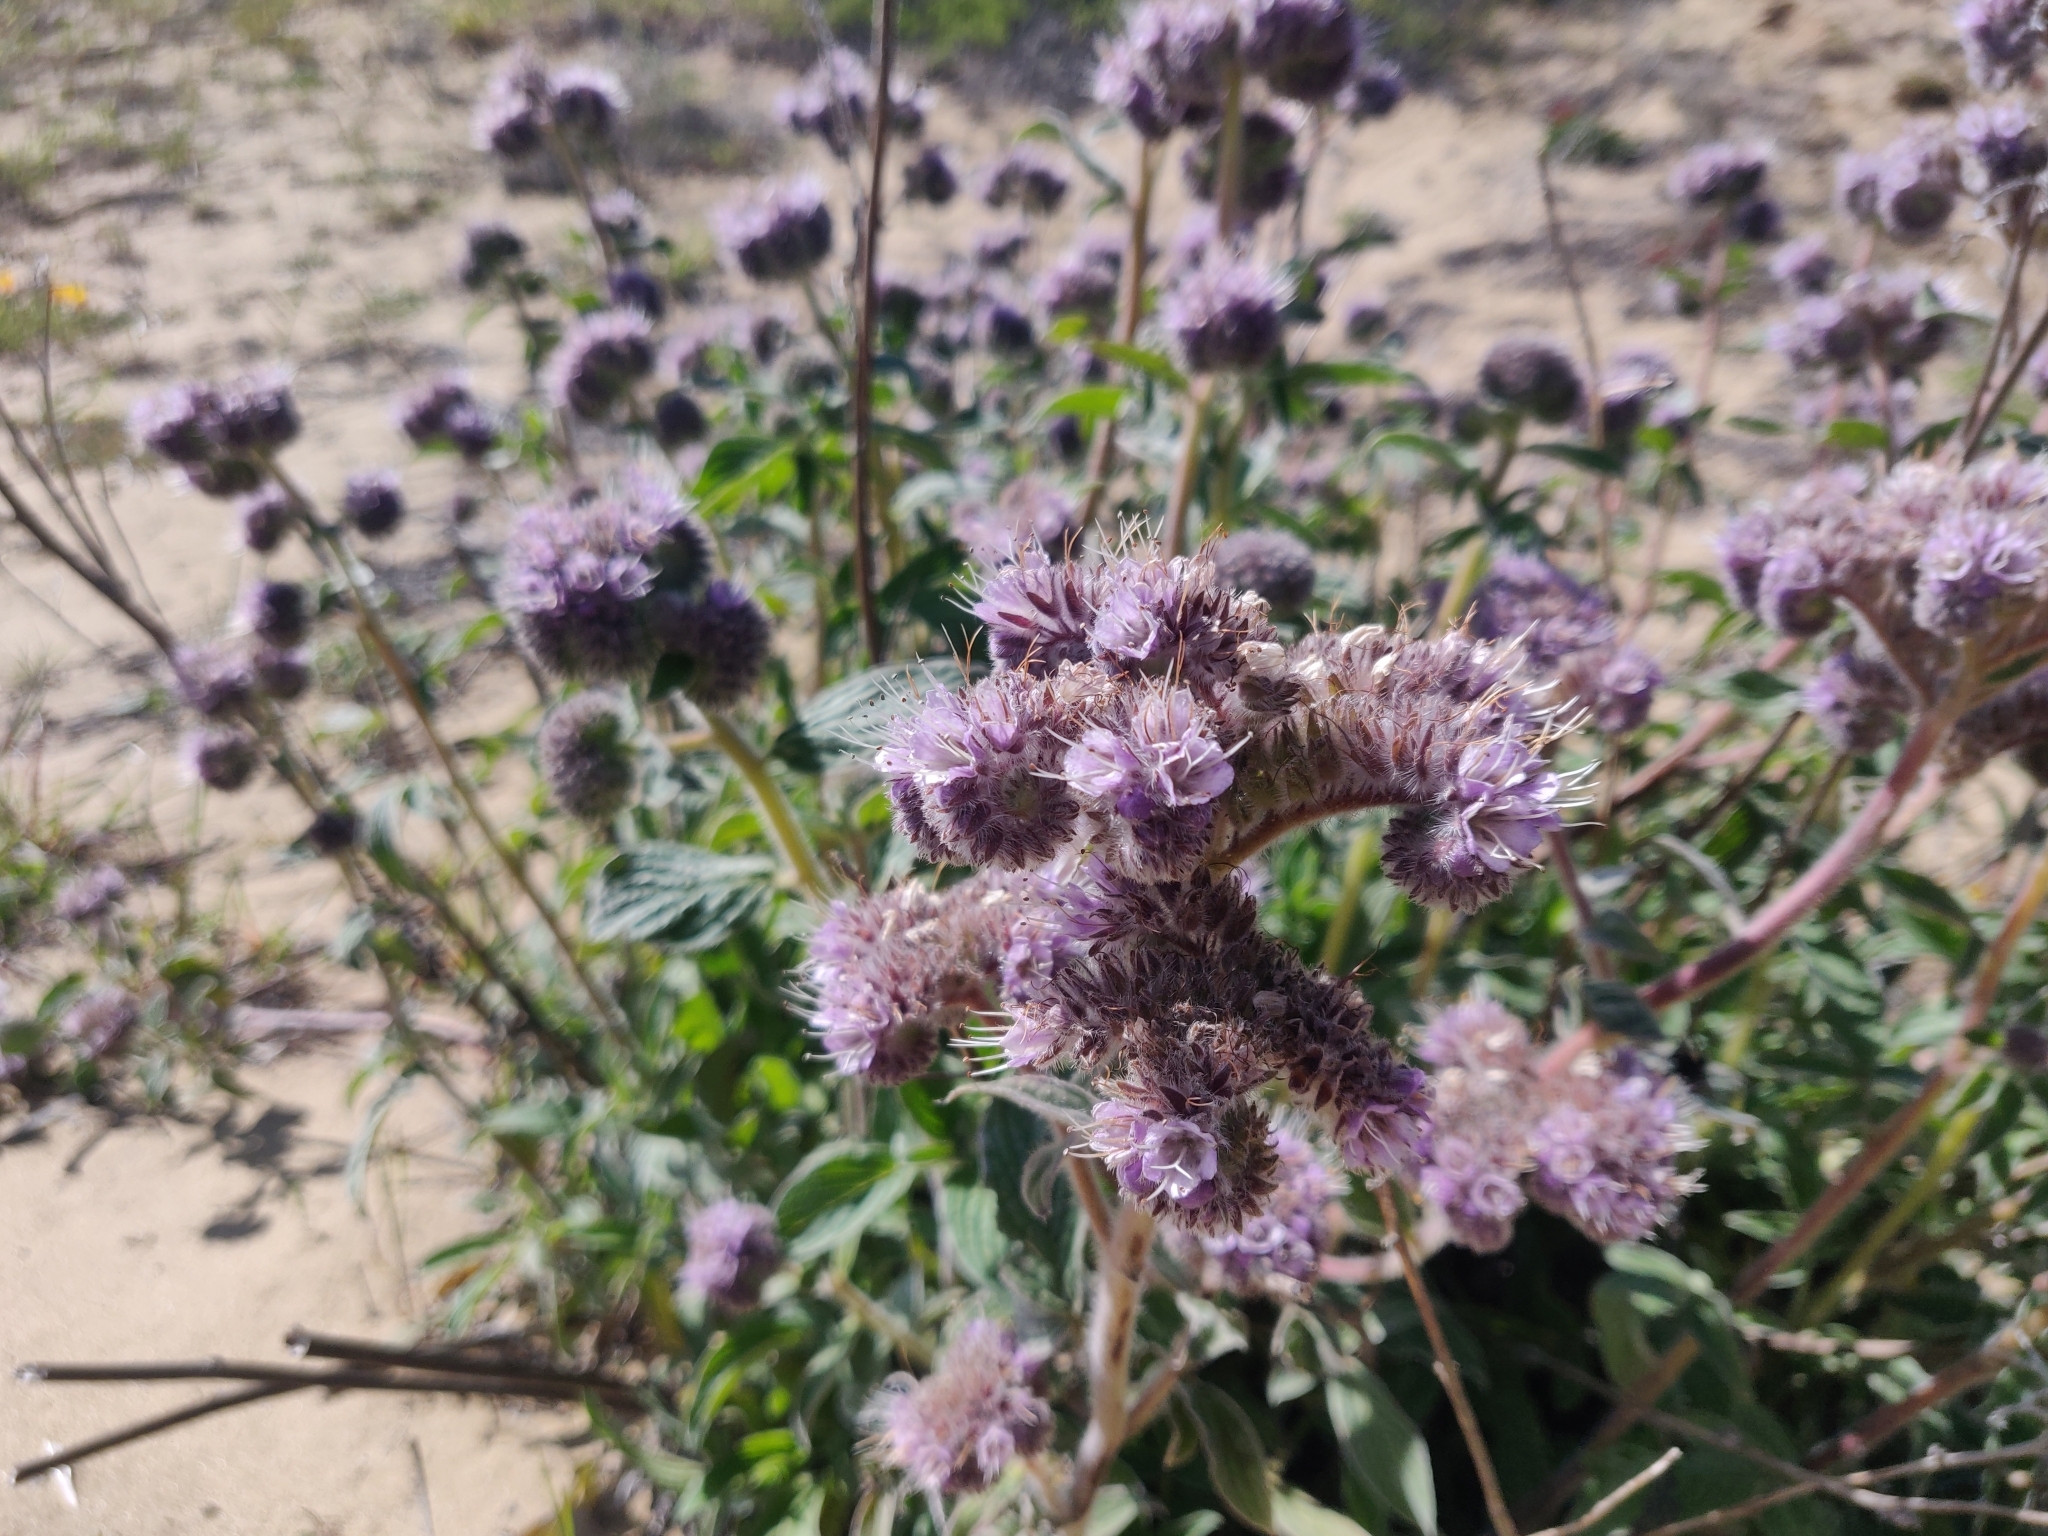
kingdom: Plantae
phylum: Tracheophyta
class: Magnoliopsida
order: Boraginales
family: Hydrophyllaceae
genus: Phacelia
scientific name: Phacelia californica
